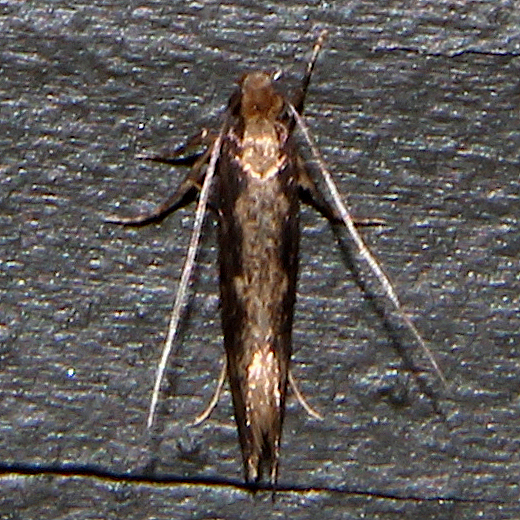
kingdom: Animalia
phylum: Arthropoda
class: Insecta
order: Lepidoptera
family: Tineidae
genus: Tinea
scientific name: Tinea pallescentella
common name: Large pale clothes moth
